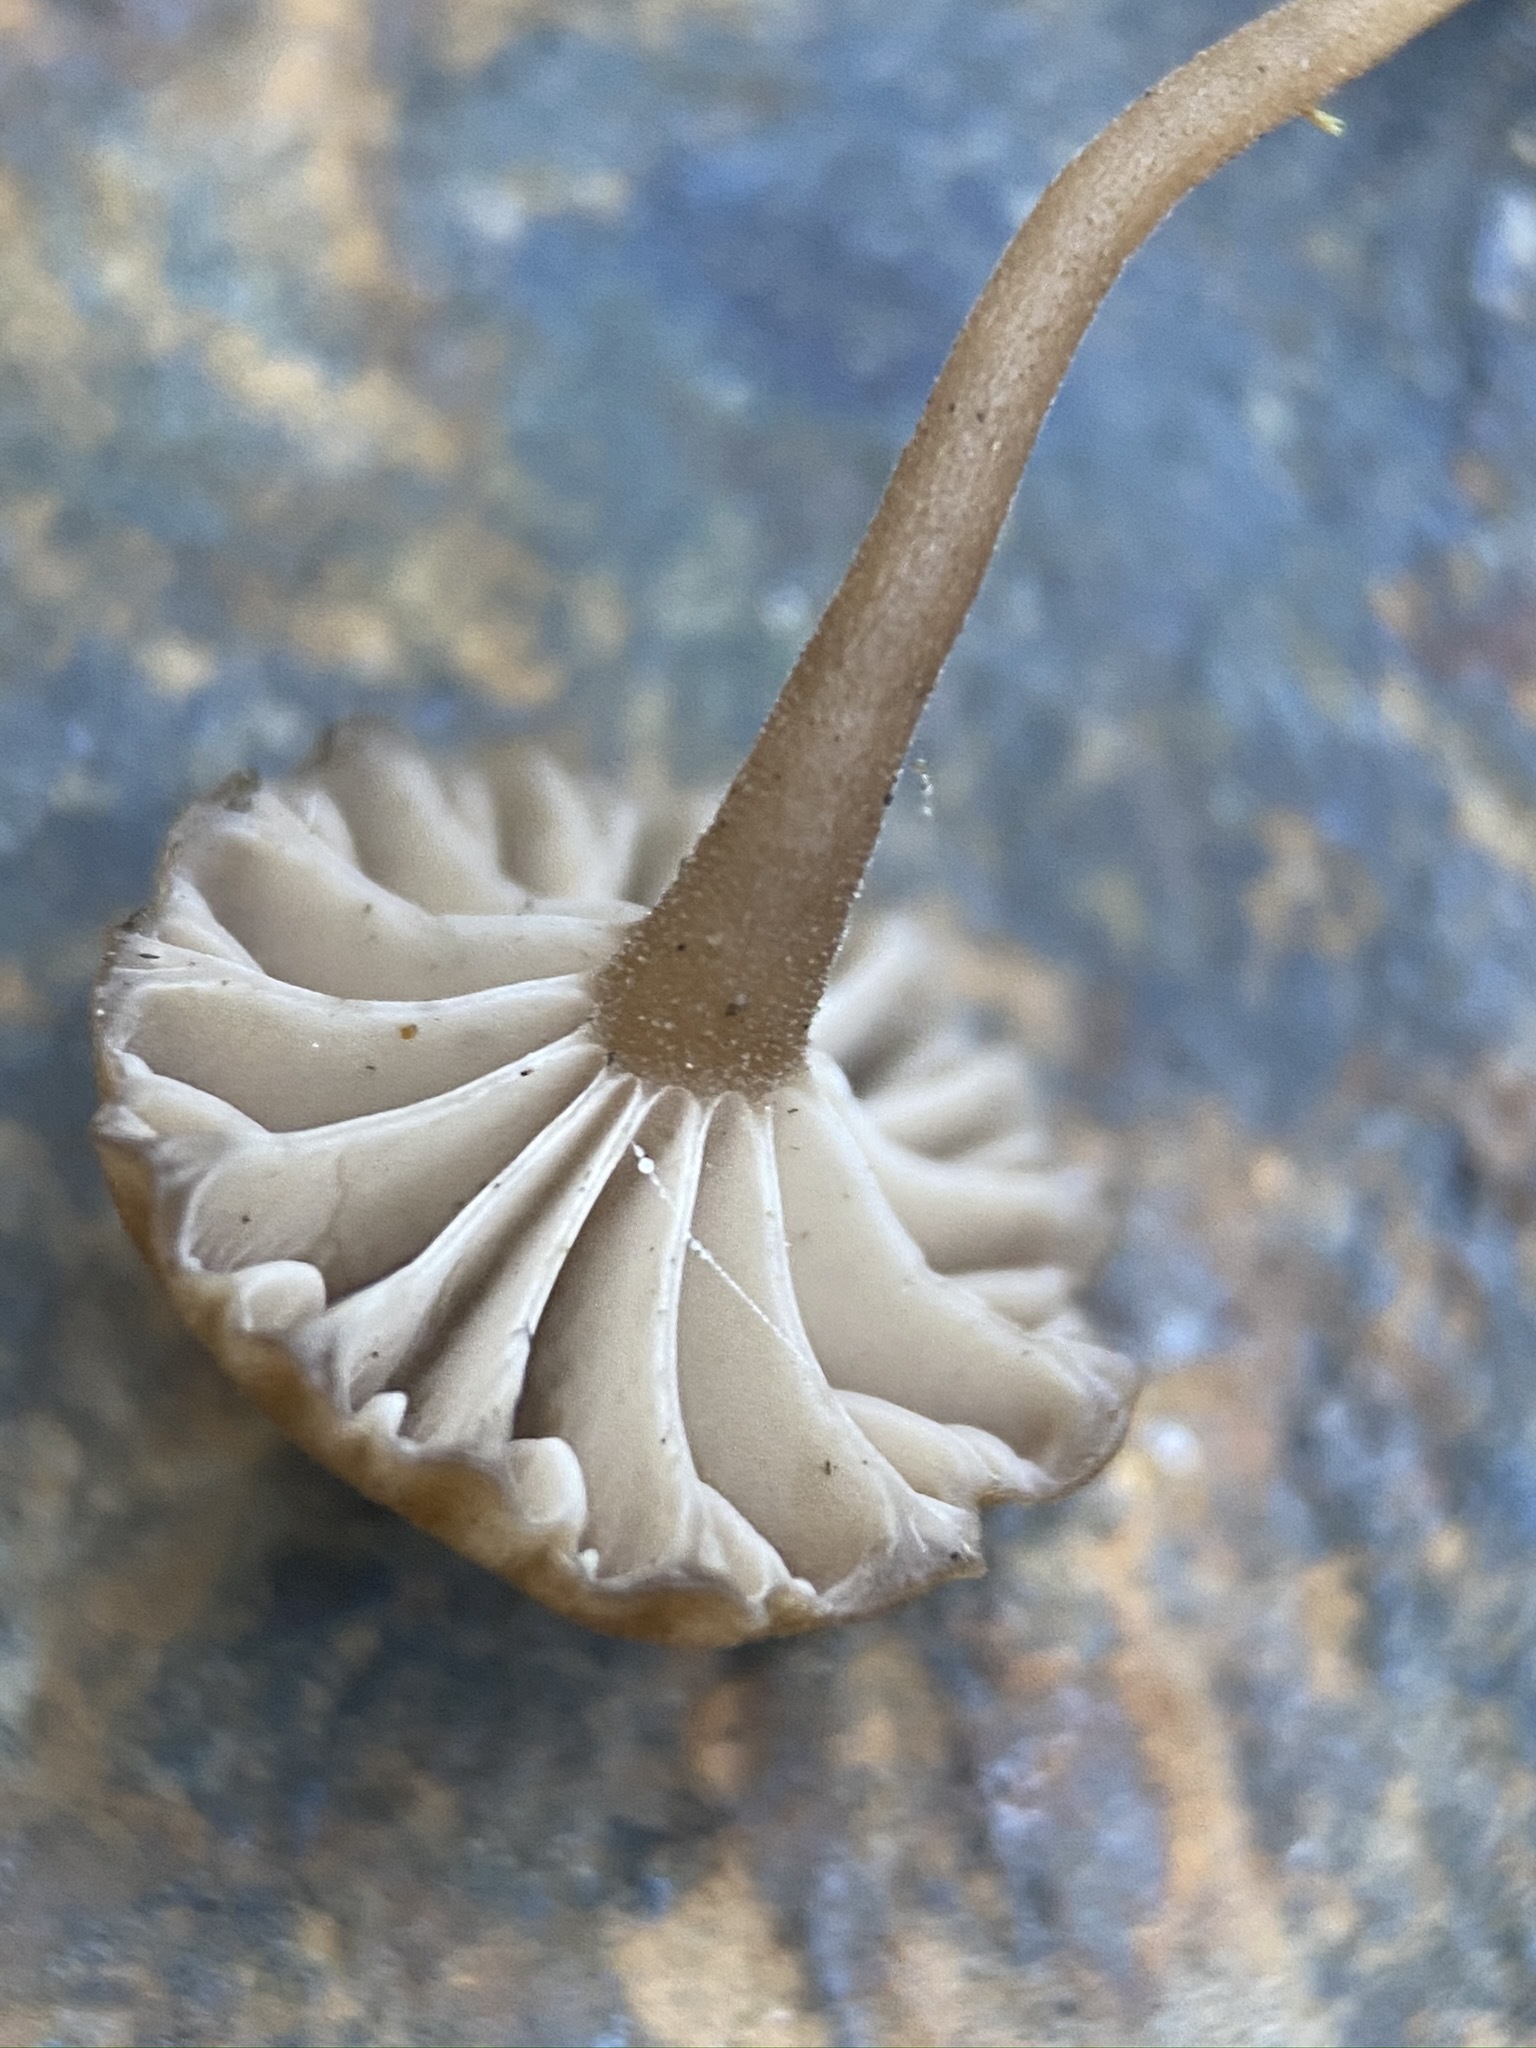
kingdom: Fungi
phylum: Basidiomycota
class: Agaricomycetes
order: Agaricales
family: Hygrophoraceae
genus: Lichenomphalia
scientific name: Lichenomphalia
